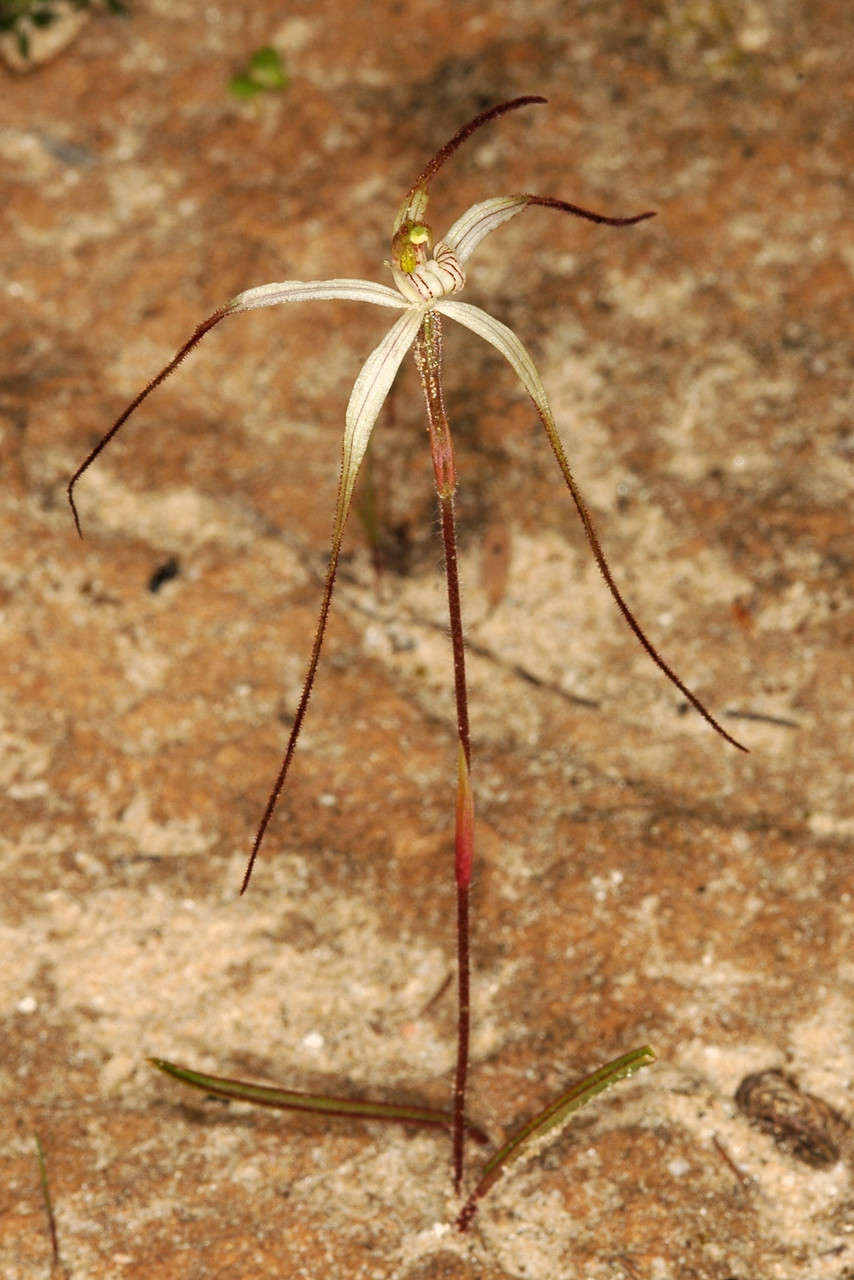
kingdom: Plantae
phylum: Tracheophyta
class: Liliopsida
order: Asparagales
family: Orchidaceae
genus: Caladenia
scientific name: Caladenia capillata
